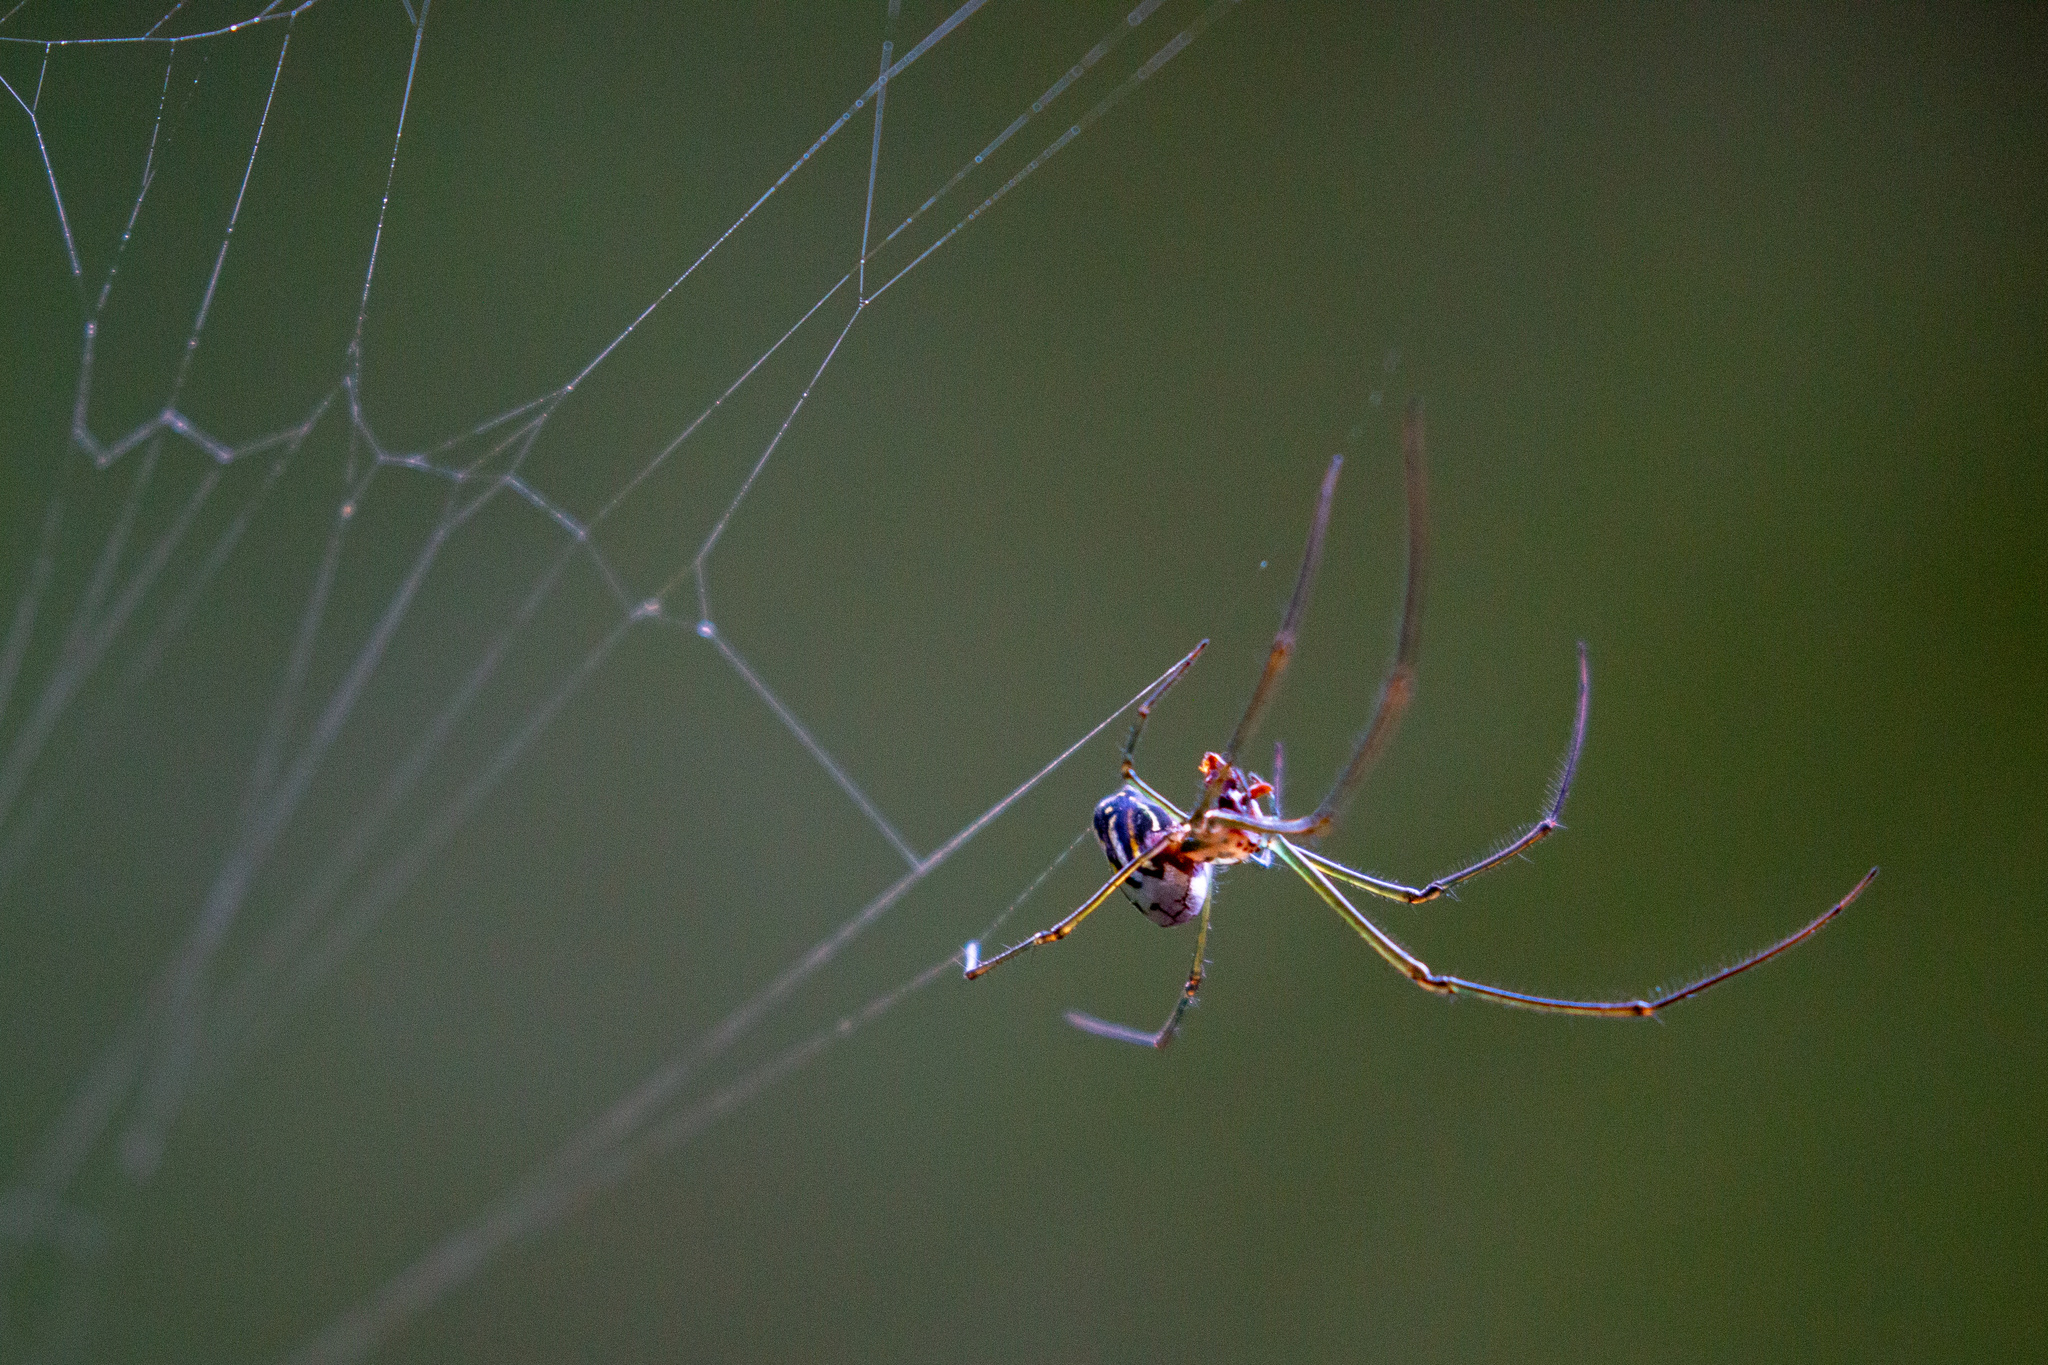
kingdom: Animalia
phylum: Arthropoda
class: Arachnida
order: Araneae
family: Tetragnathidae
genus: Leucauge
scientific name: Leucauge argyra
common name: Longjawed orb weavers
